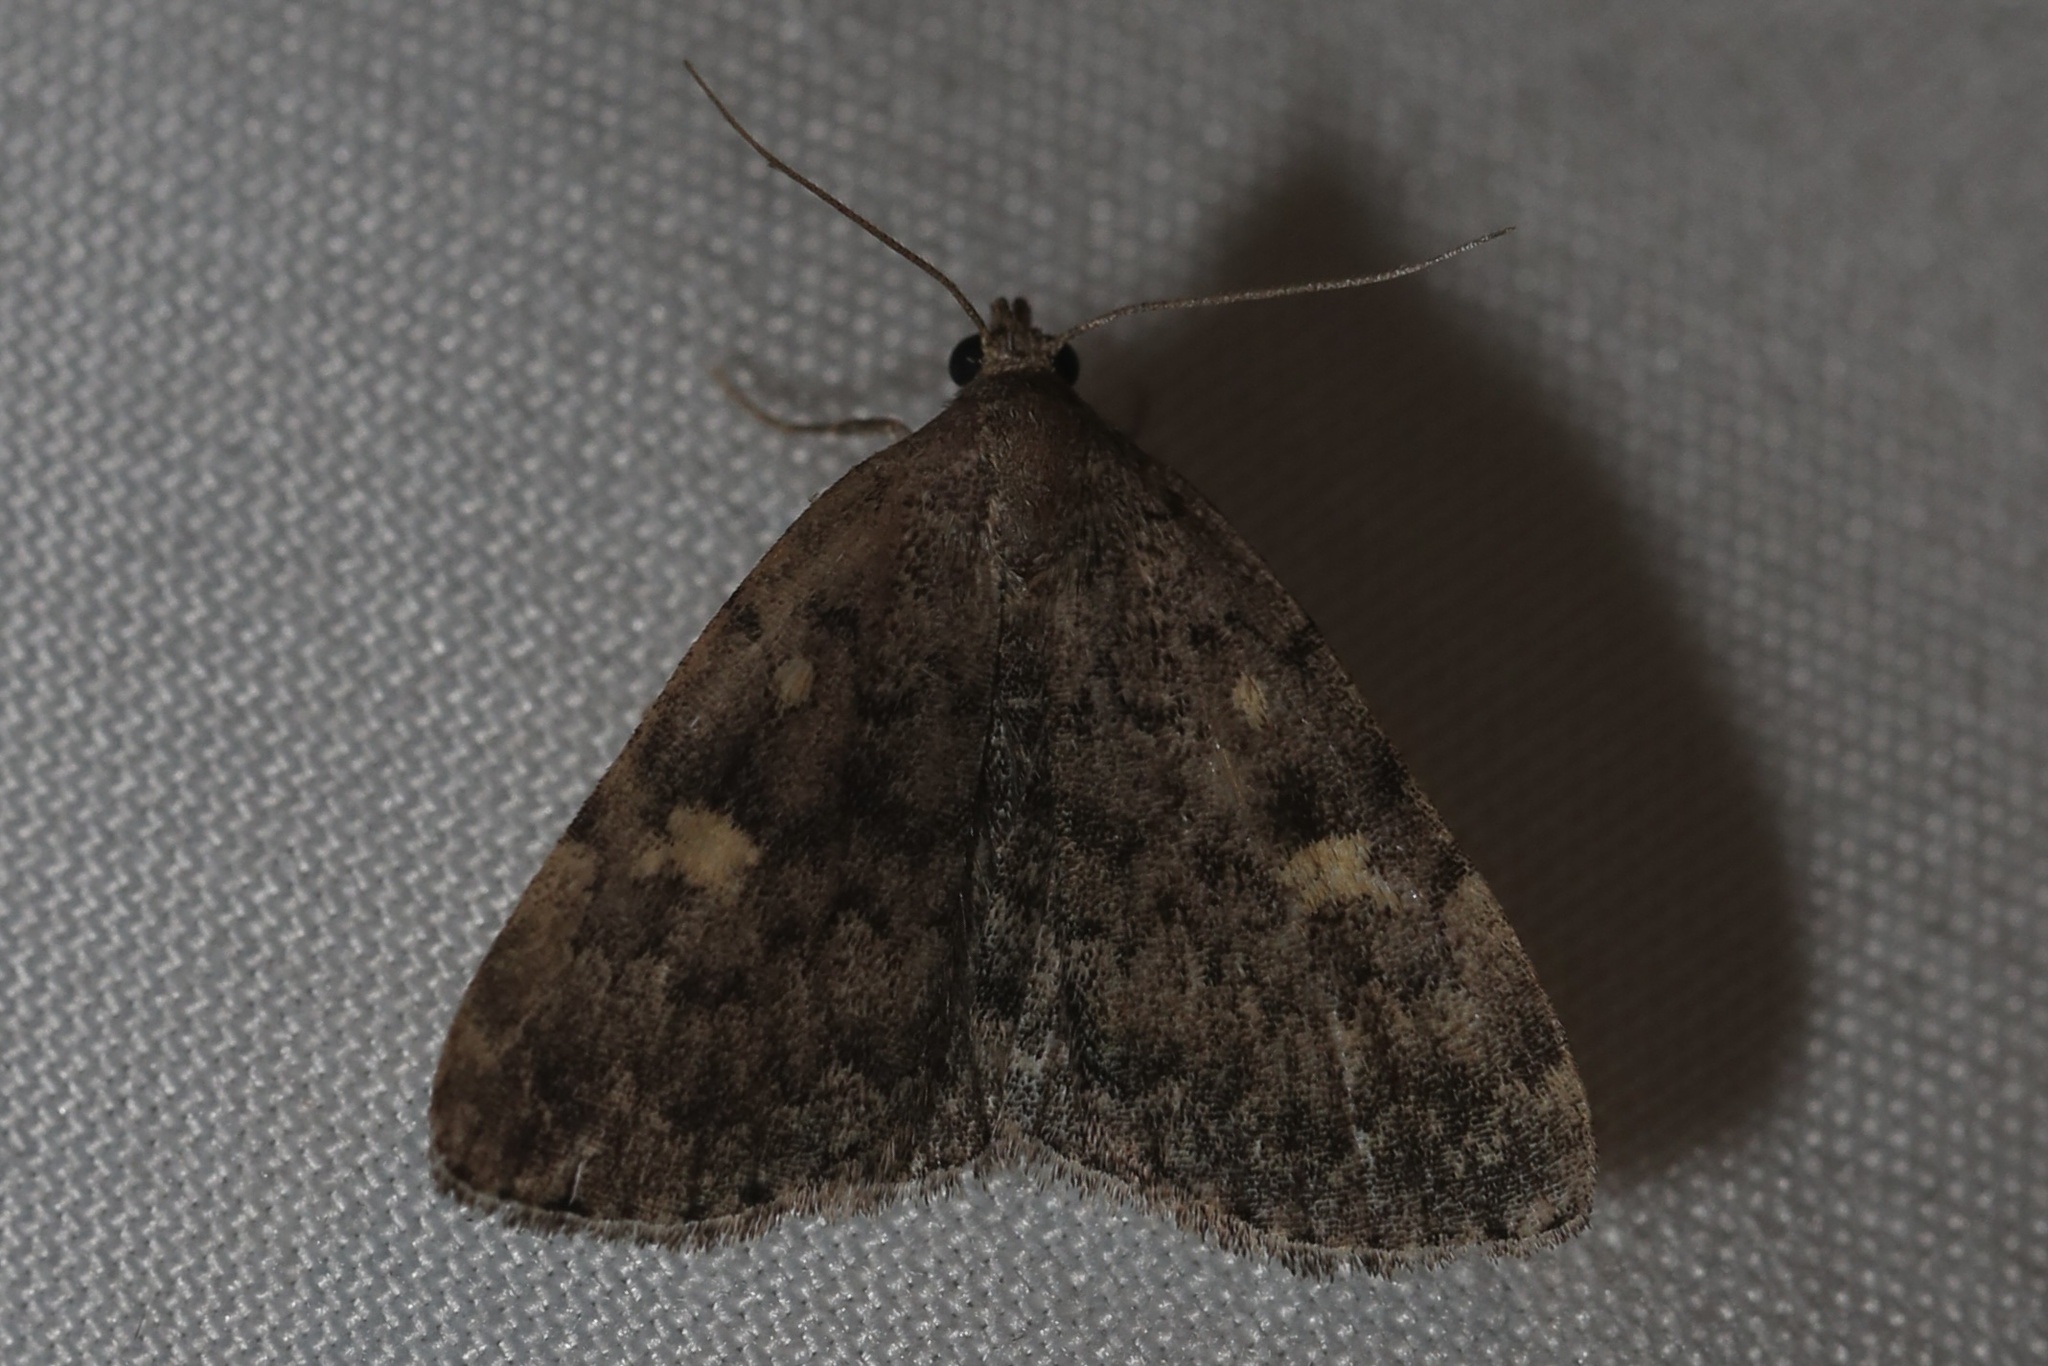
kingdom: Animalia
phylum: Arthropoda
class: Insecta
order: Lepidoptera
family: Erebidae
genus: Idia
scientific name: Idia aemula
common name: Common idia moth
